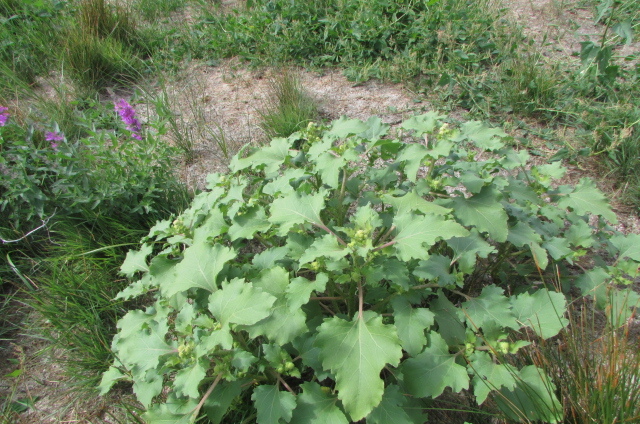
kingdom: Plantae
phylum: Tracheophyta
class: Magnoliopsida
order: Asterales
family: Asteraceae
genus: Xanthium
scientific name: Xanthium orientale
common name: Californian burr
